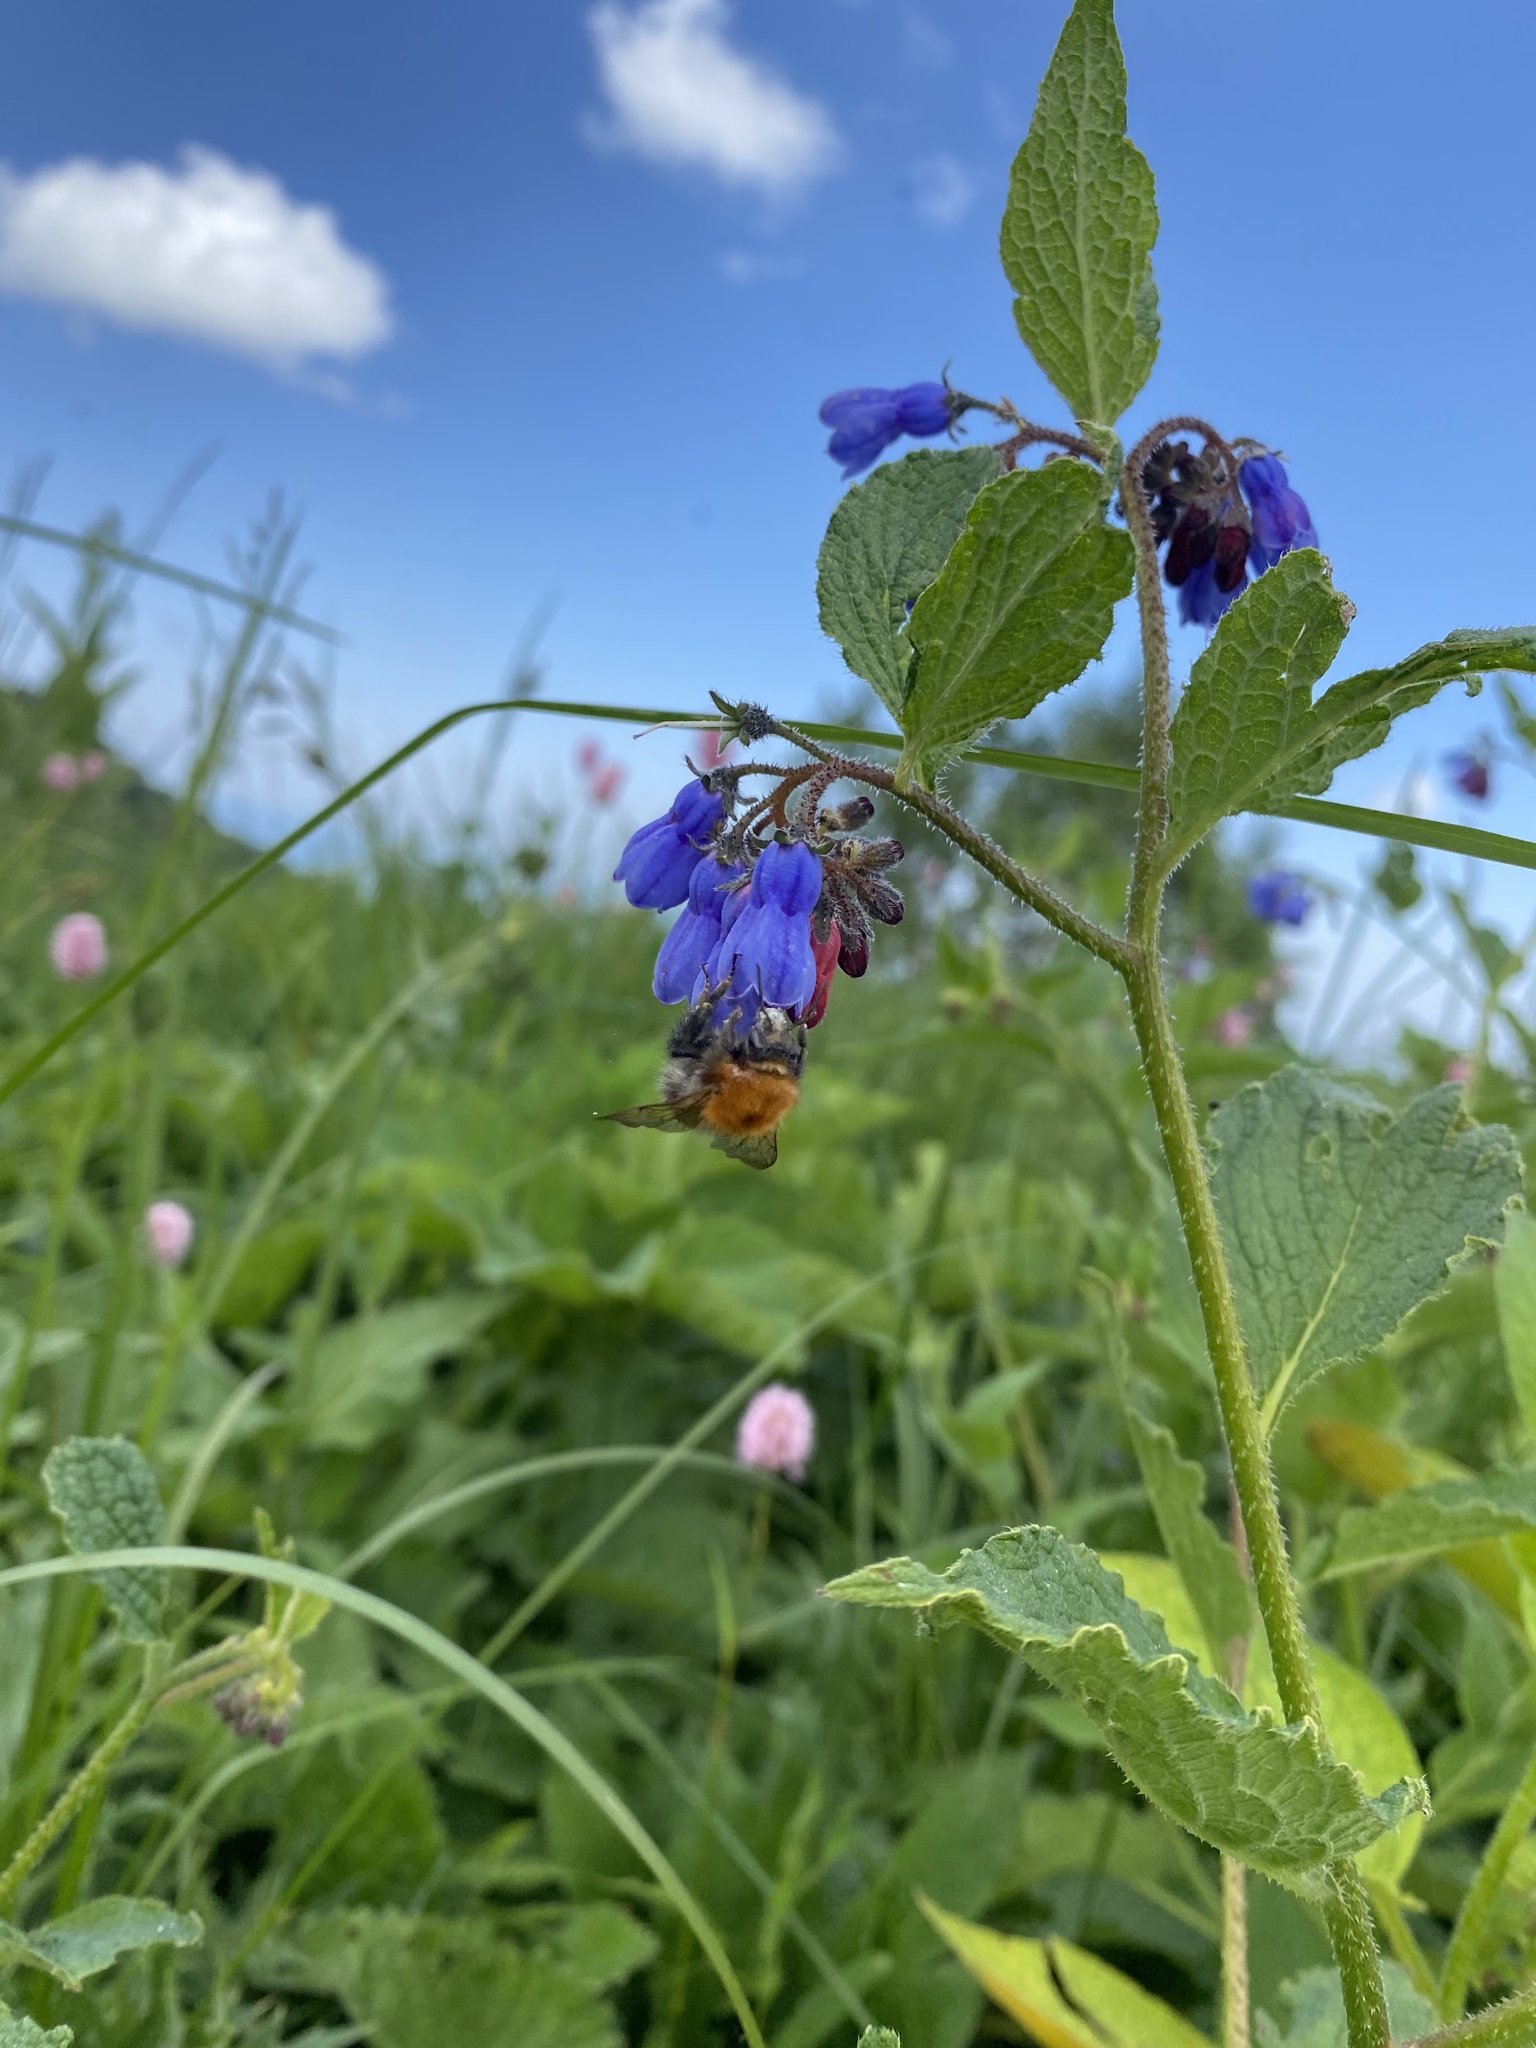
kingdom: Animalia
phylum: Arthropoda
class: Insecta
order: Hymenoptera
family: Apidae
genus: Bombus
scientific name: Bombus pascuorum
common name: Common carder bee
